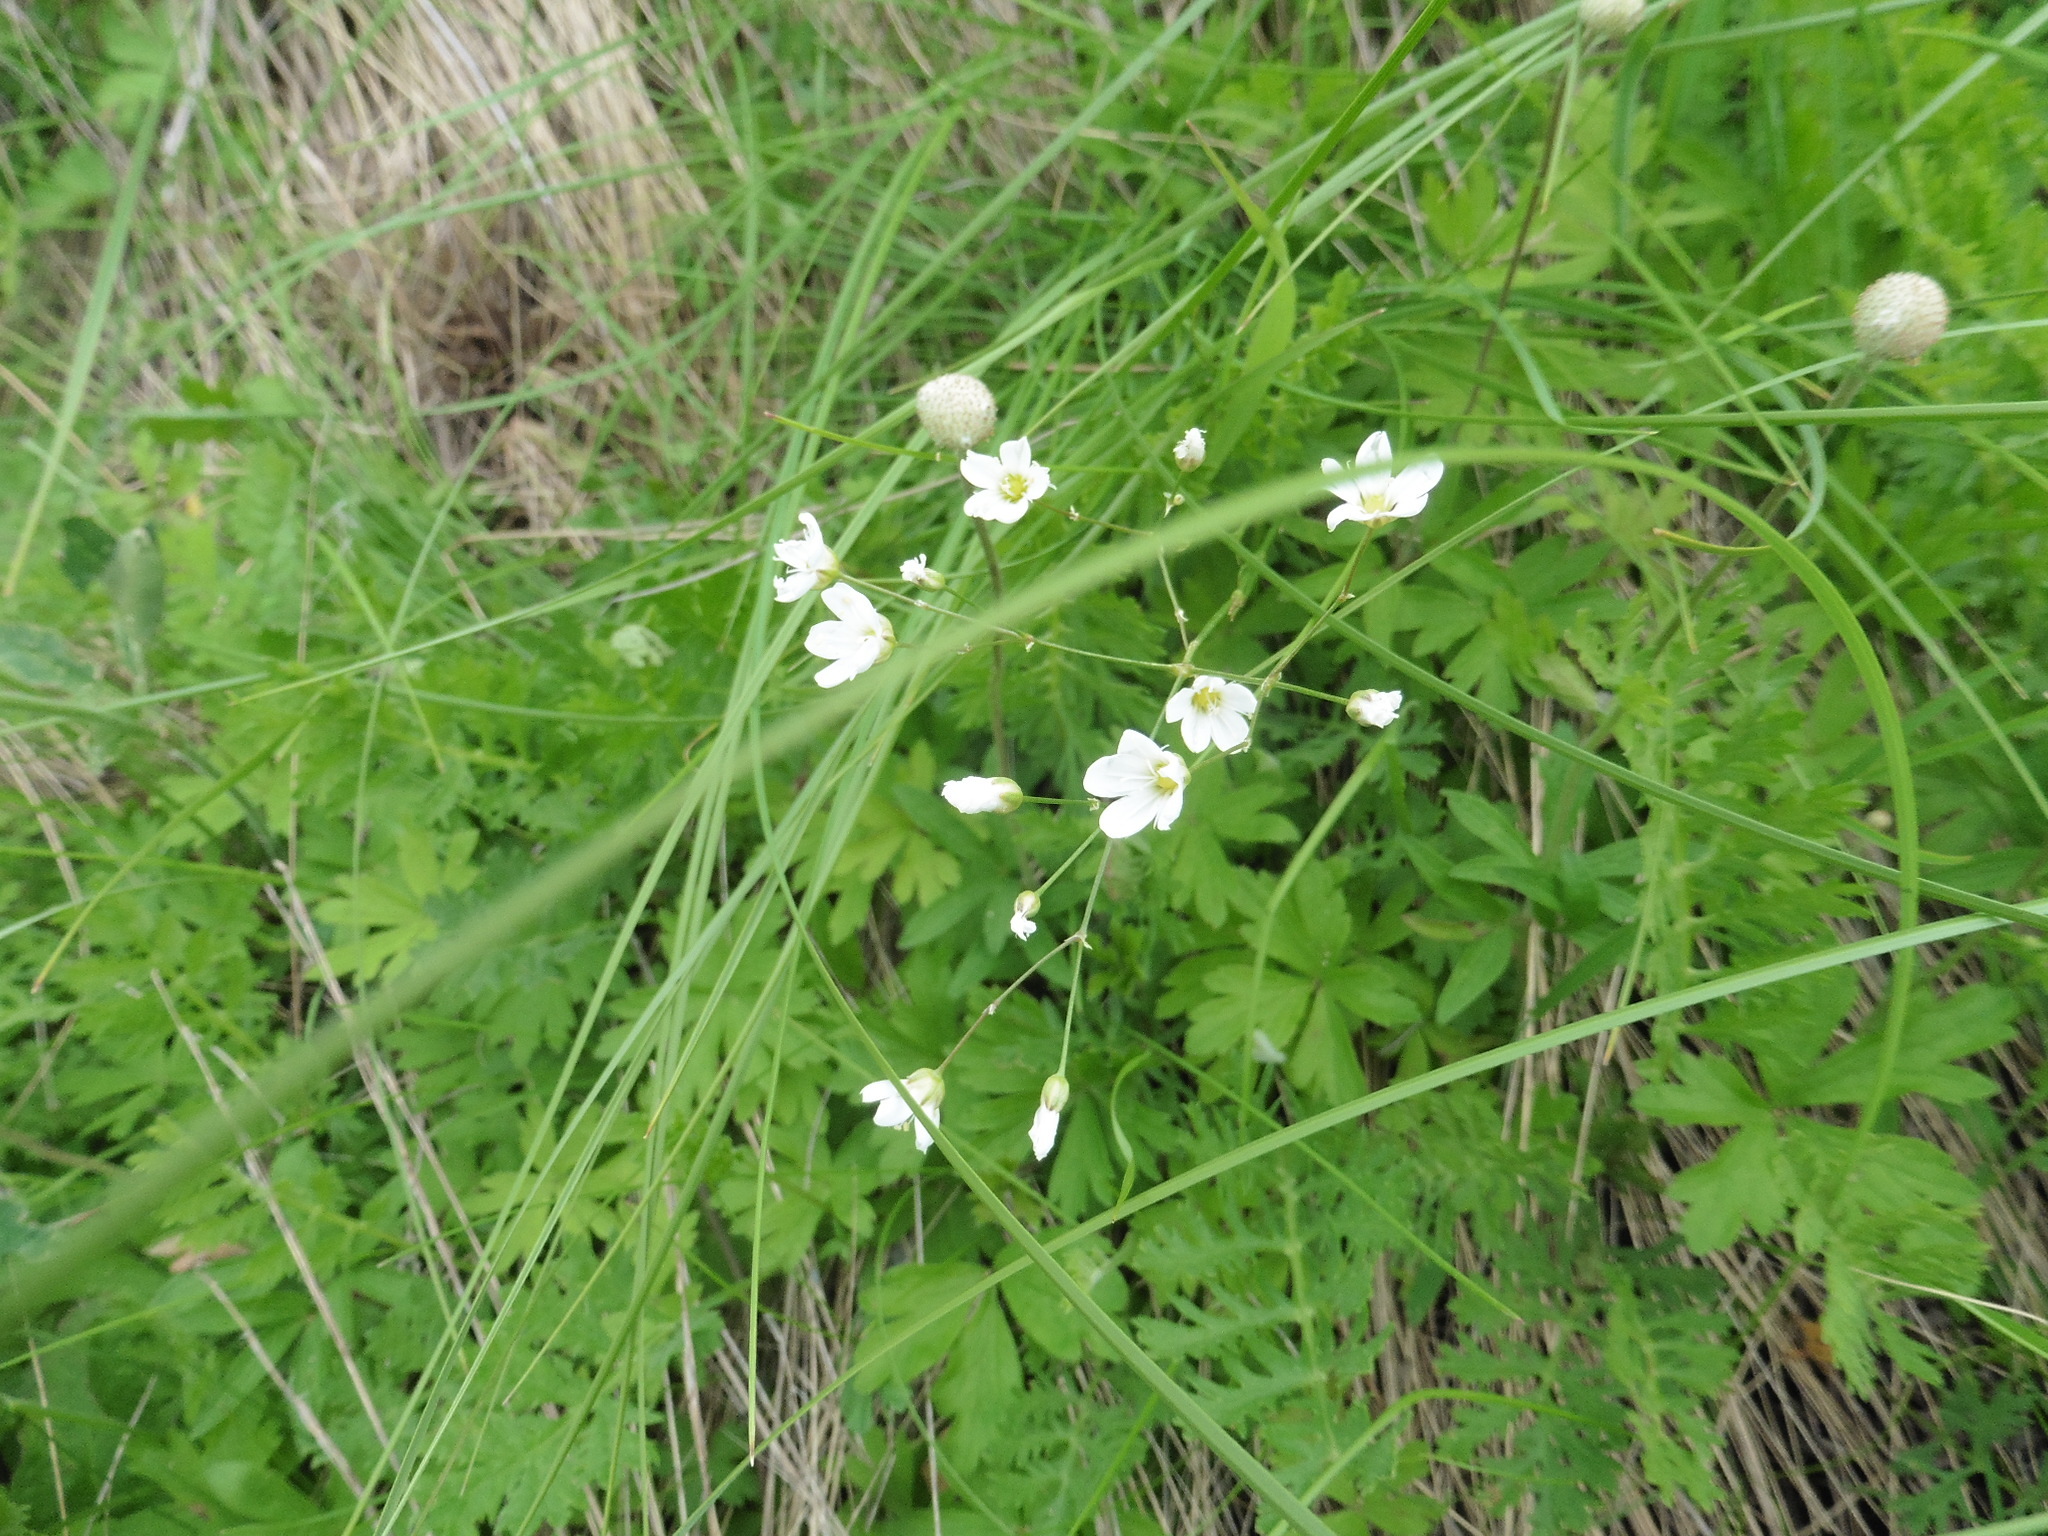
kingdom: Plantae
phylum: Tracheophyta
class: Magnoliopsida
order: Caryophyllales
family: Caryophyllaceae
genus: Eremogone
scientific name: Eremogone saxatilis
